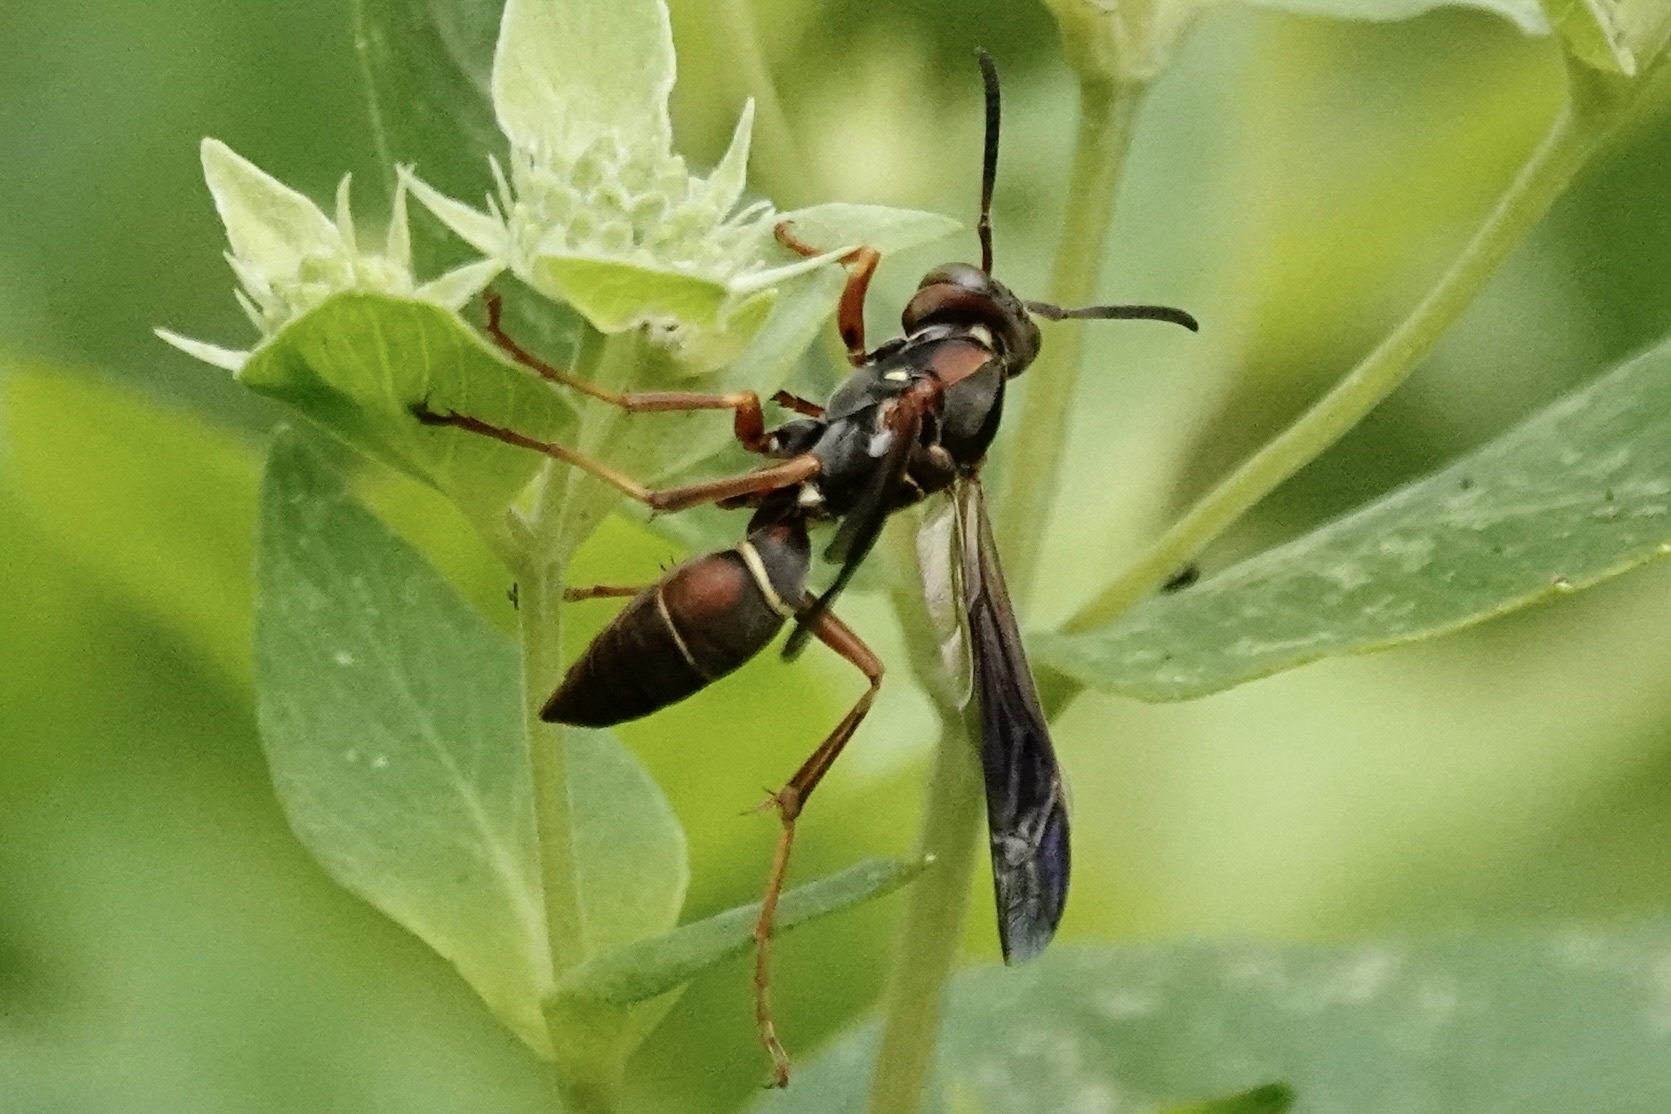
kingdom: Animalia
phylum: Arthropoda
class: Insecta
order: Hymenoptera
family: Eumenidae
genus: Polistes
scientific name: Polistes fuscatus
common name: Dark paper wasp
